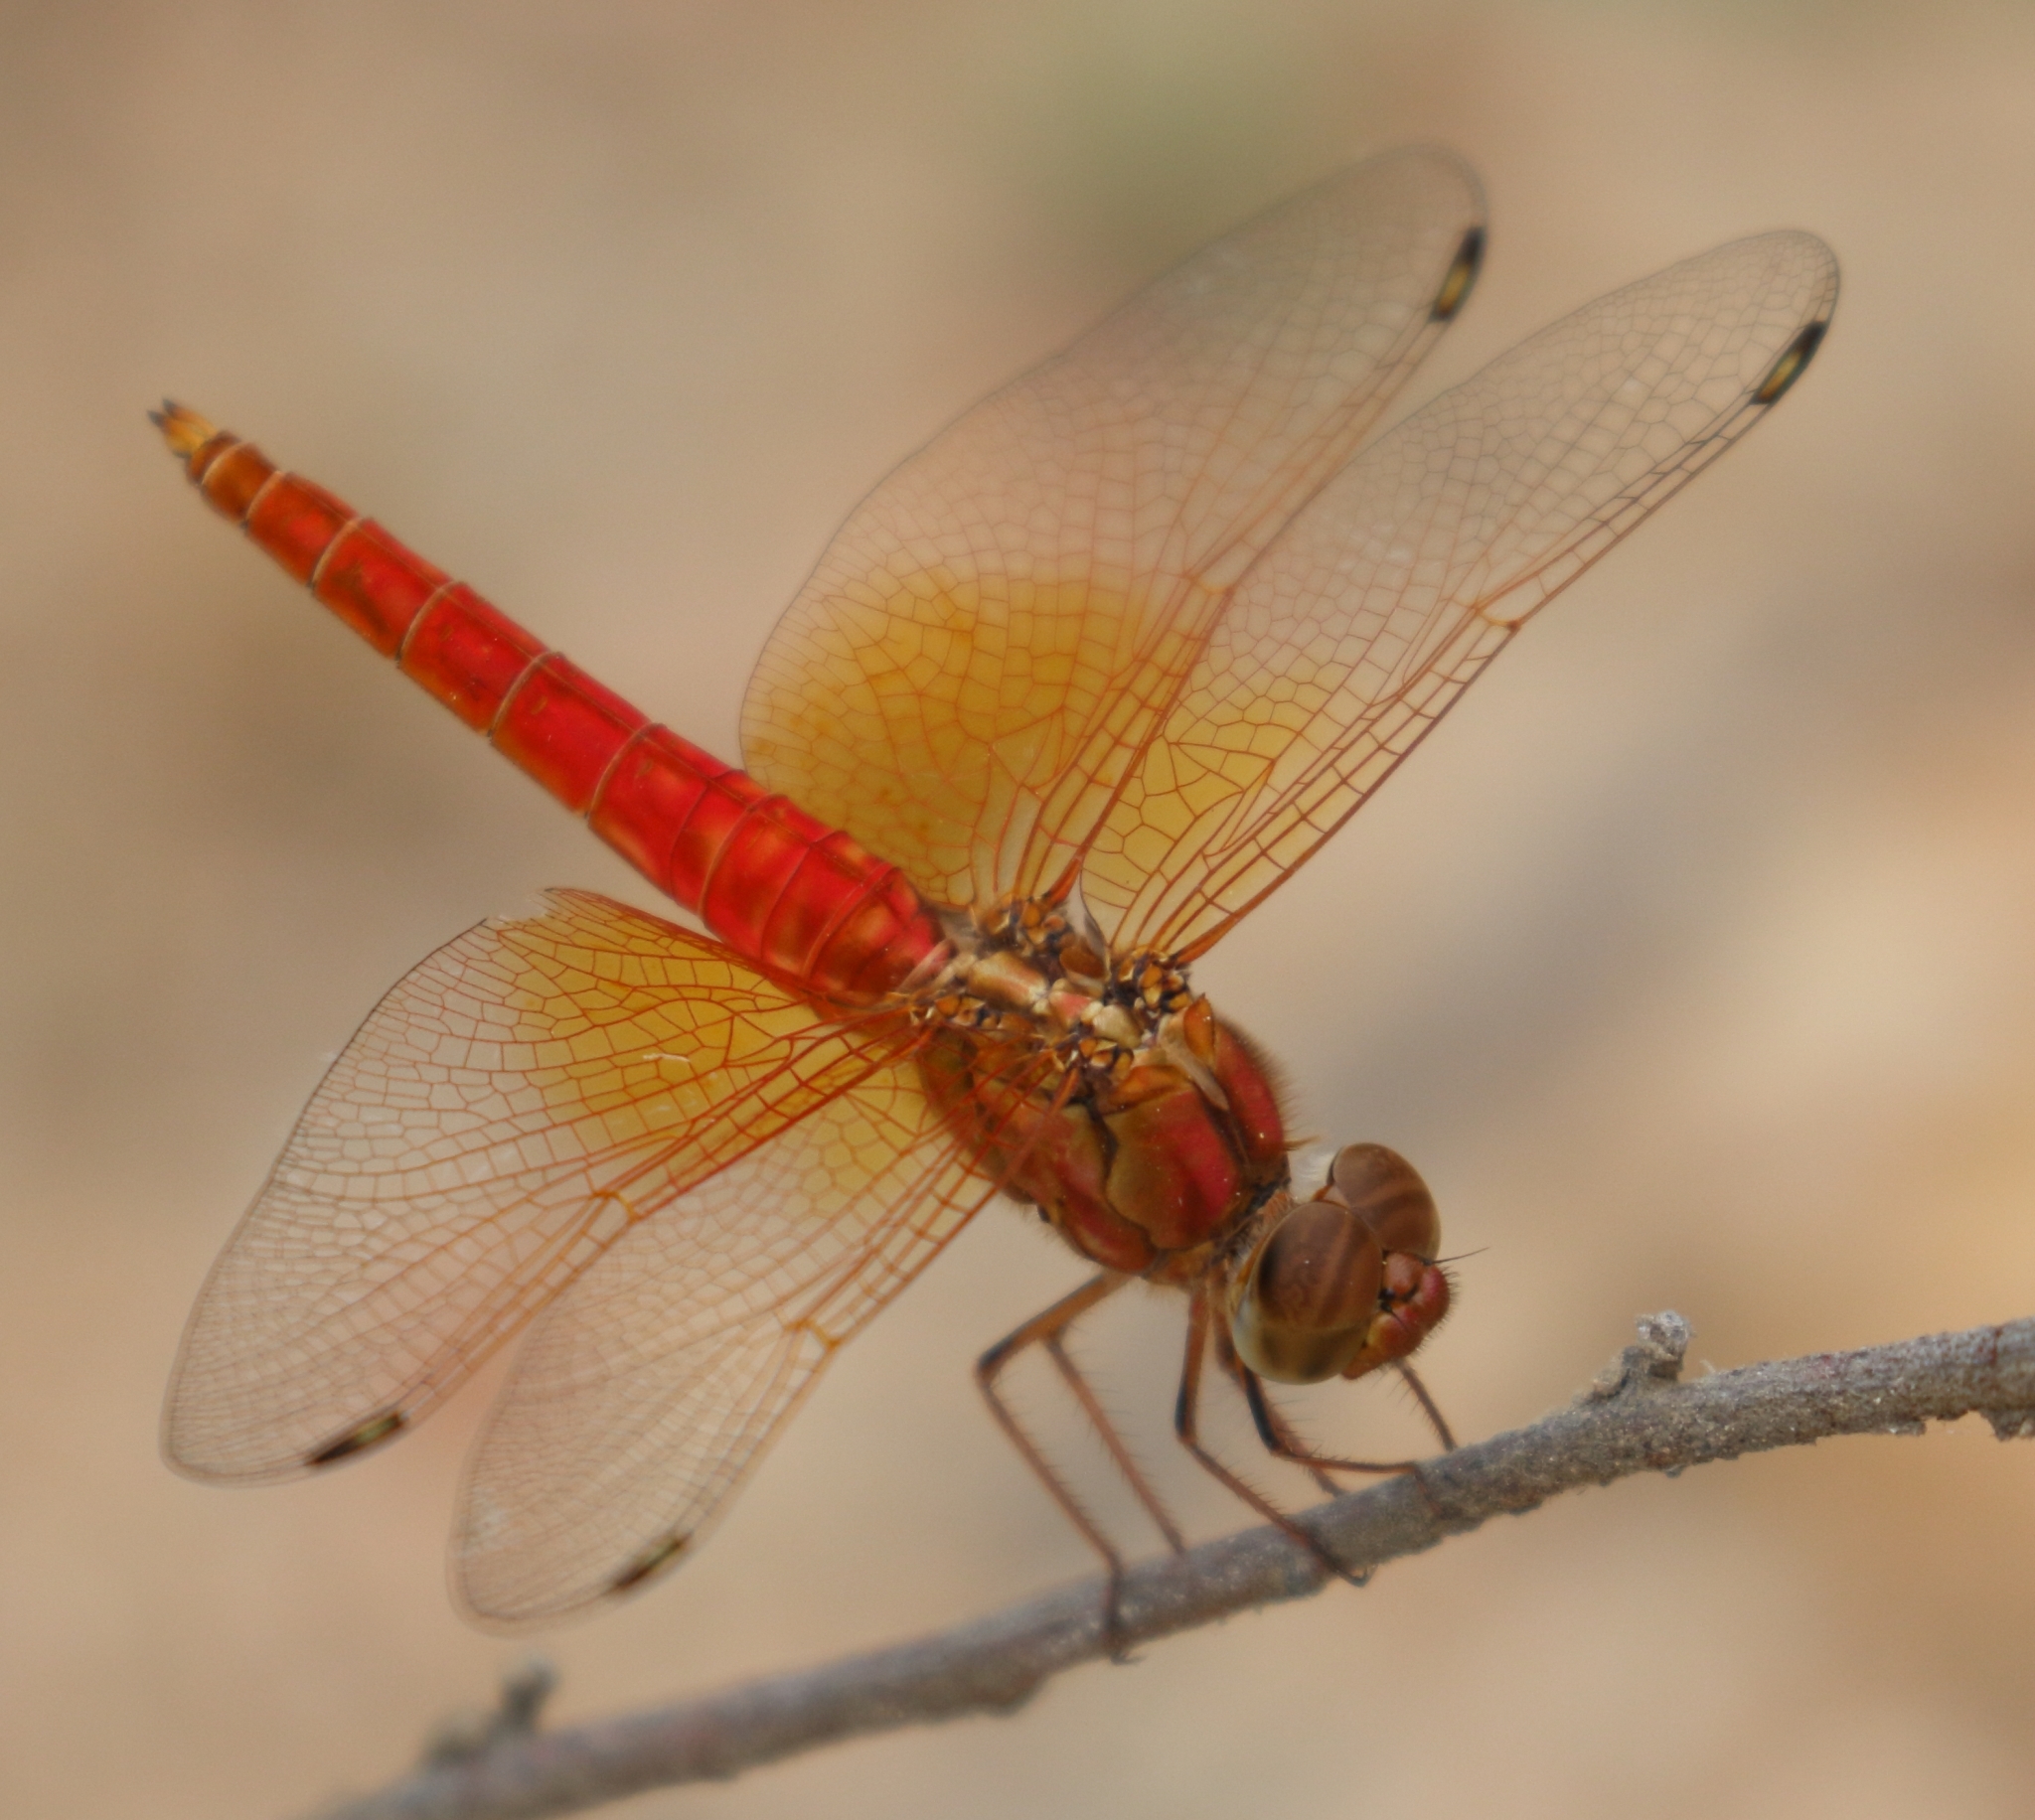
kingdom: Animalia
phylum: Arthropoda
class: Insecta
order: Odonata
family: Libellulidae
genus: Brachythemis
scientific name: Brachythemis lacustris
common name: Red groundling
